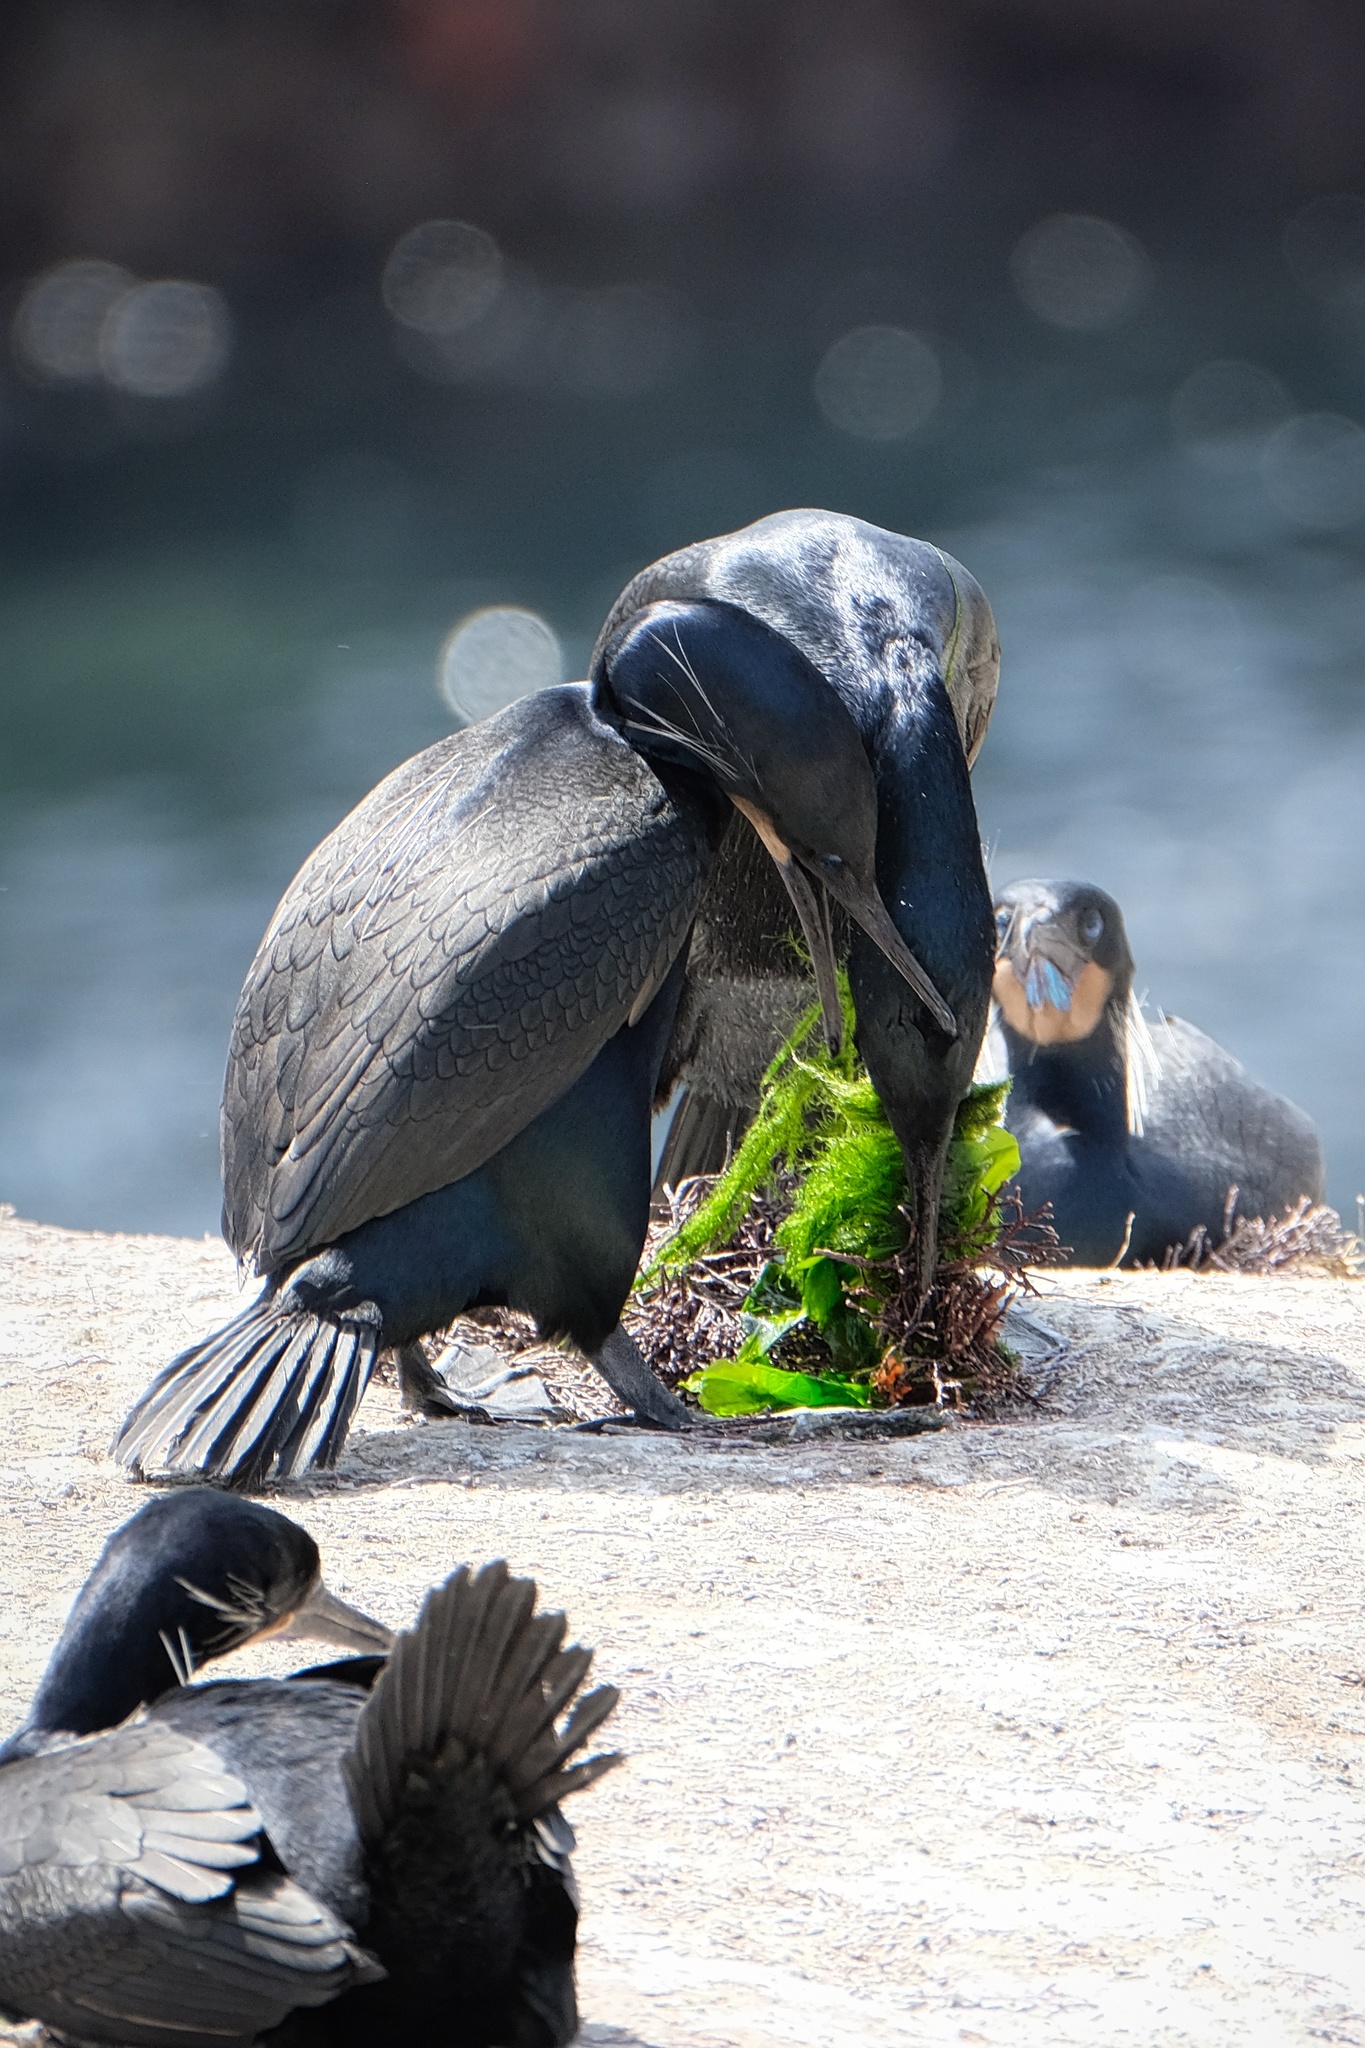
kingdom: Animalia
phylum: Chordata
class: Aves
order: Suliformes
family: Phalacrocoracidae
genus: Urile
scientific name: Urile penicillatus
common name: Brandt's cormorant
